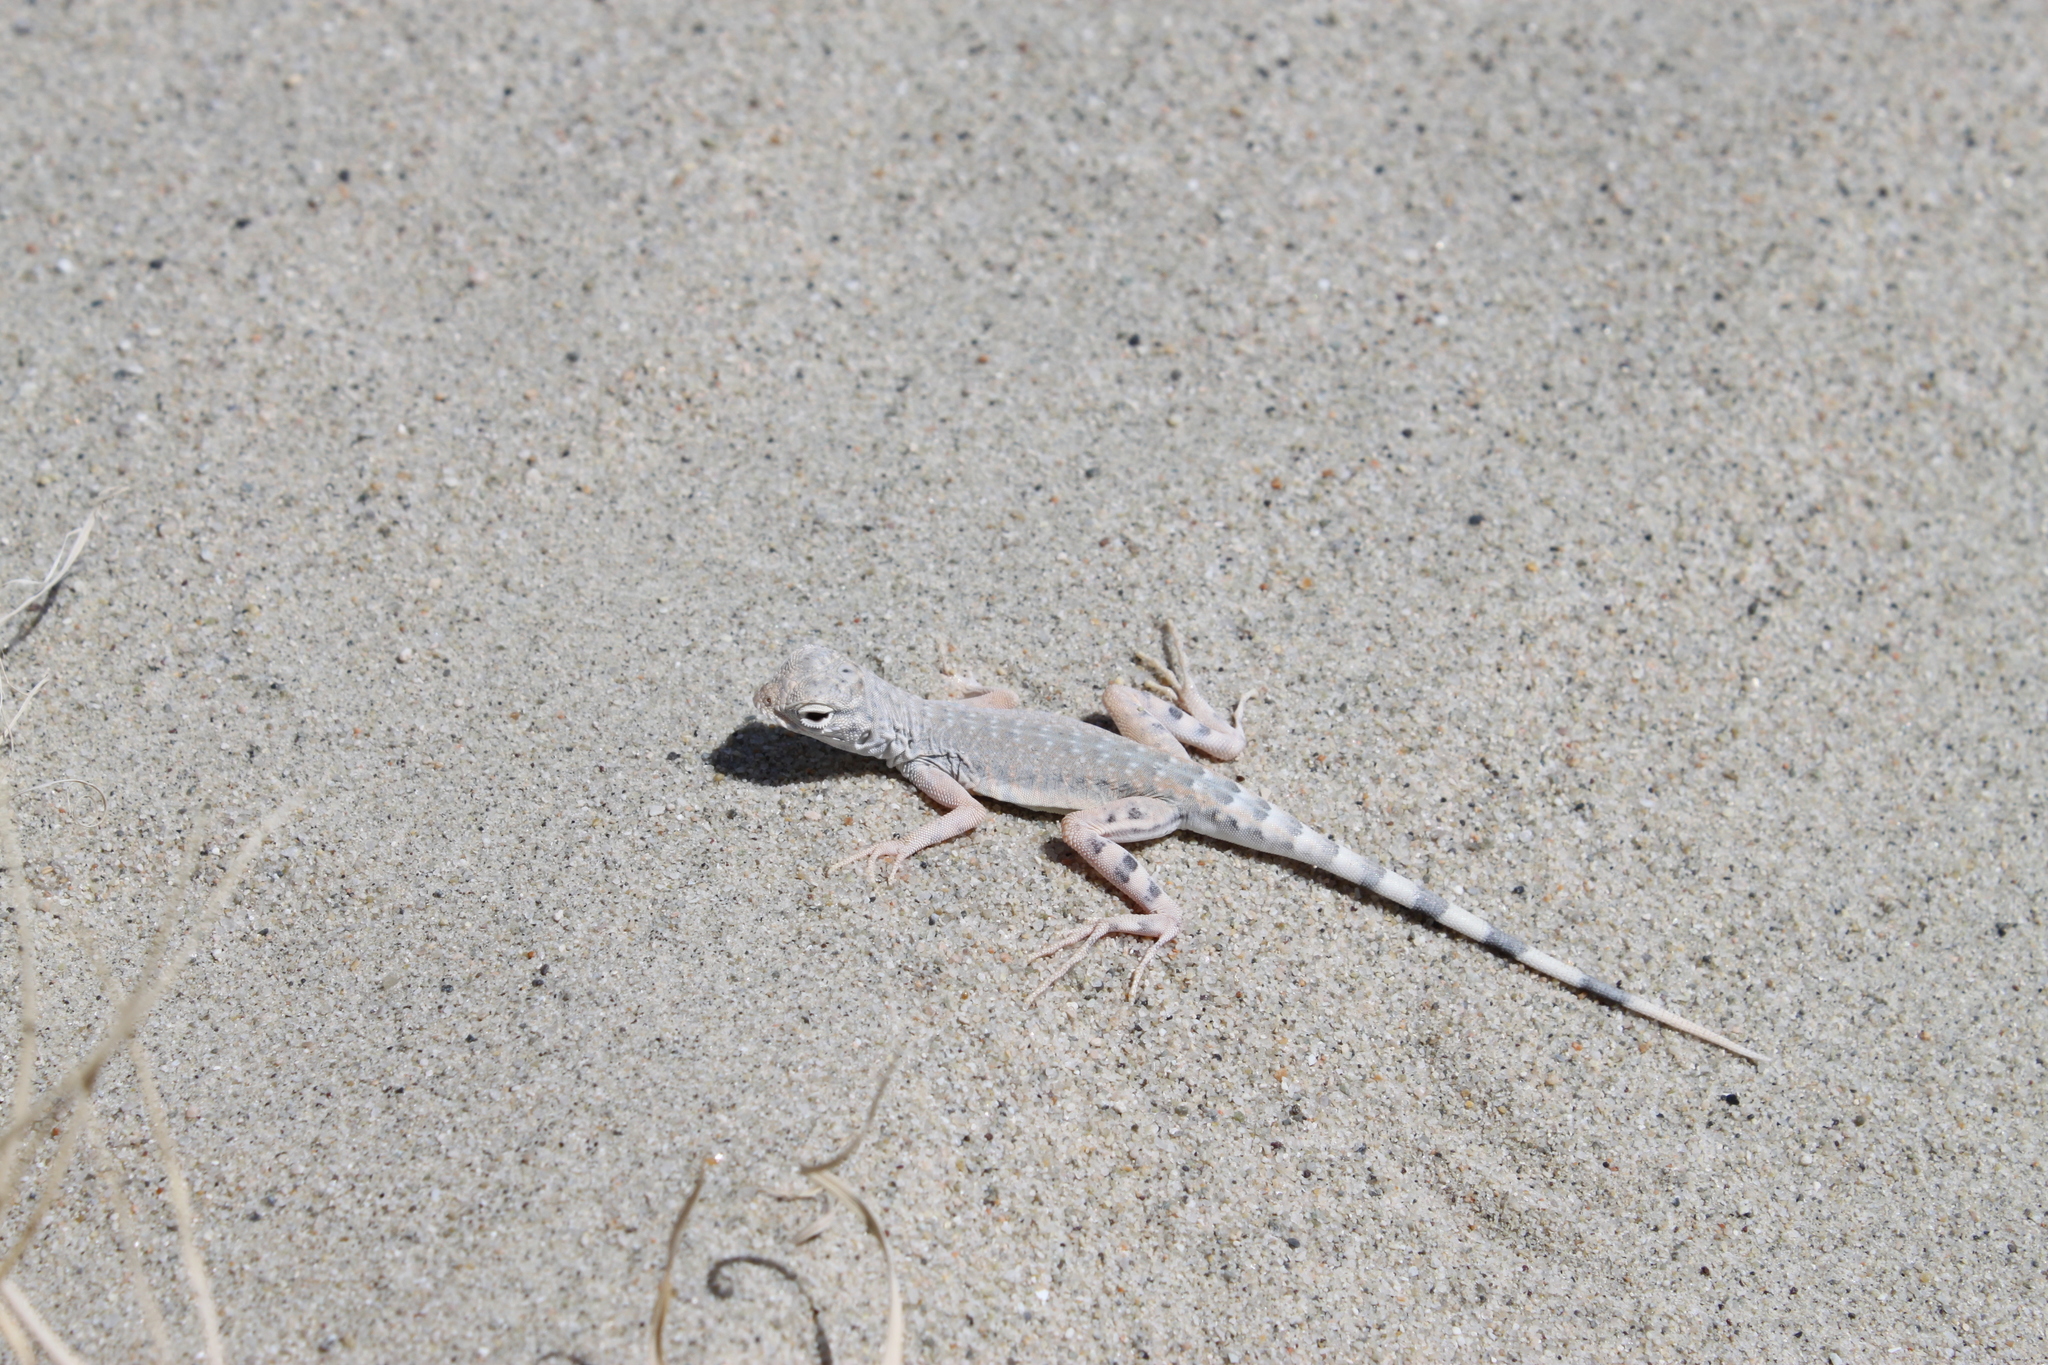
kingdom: Animalia
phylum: Chordata
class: Squamata
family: Phrynosomatidae
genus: Callisaurus
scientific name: Callisaurus draconoides
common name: Zebra-tailed lizard
